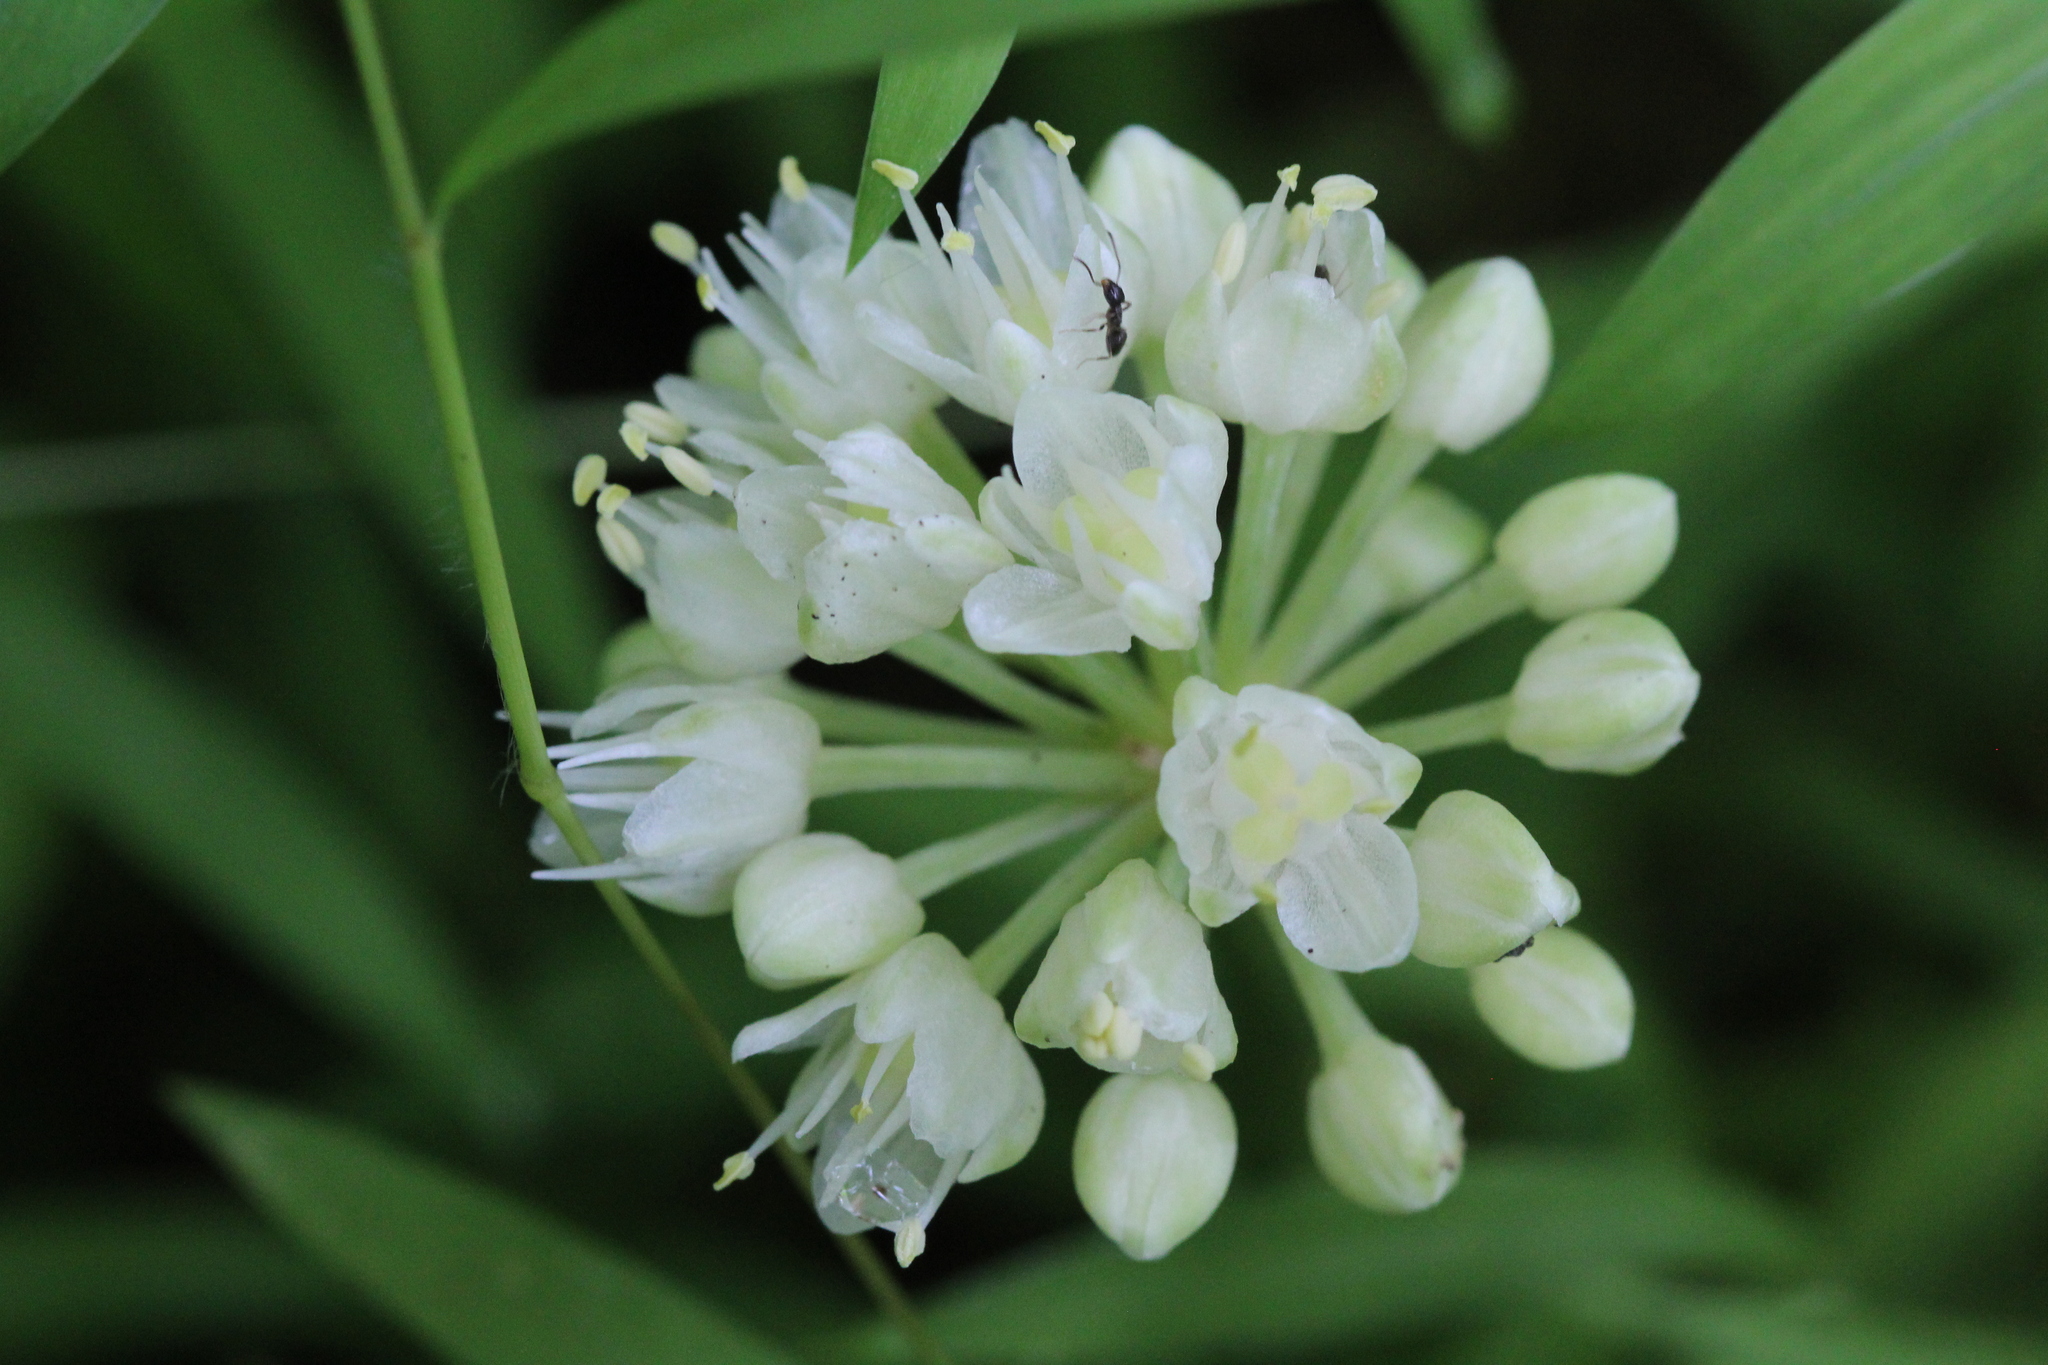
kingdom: Plantae
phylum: Tracheophyta
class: Liliopsida
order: Asparagales
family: Amaryllidaceae
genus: Allium
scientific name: Allium tricoccum
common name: Ramp
